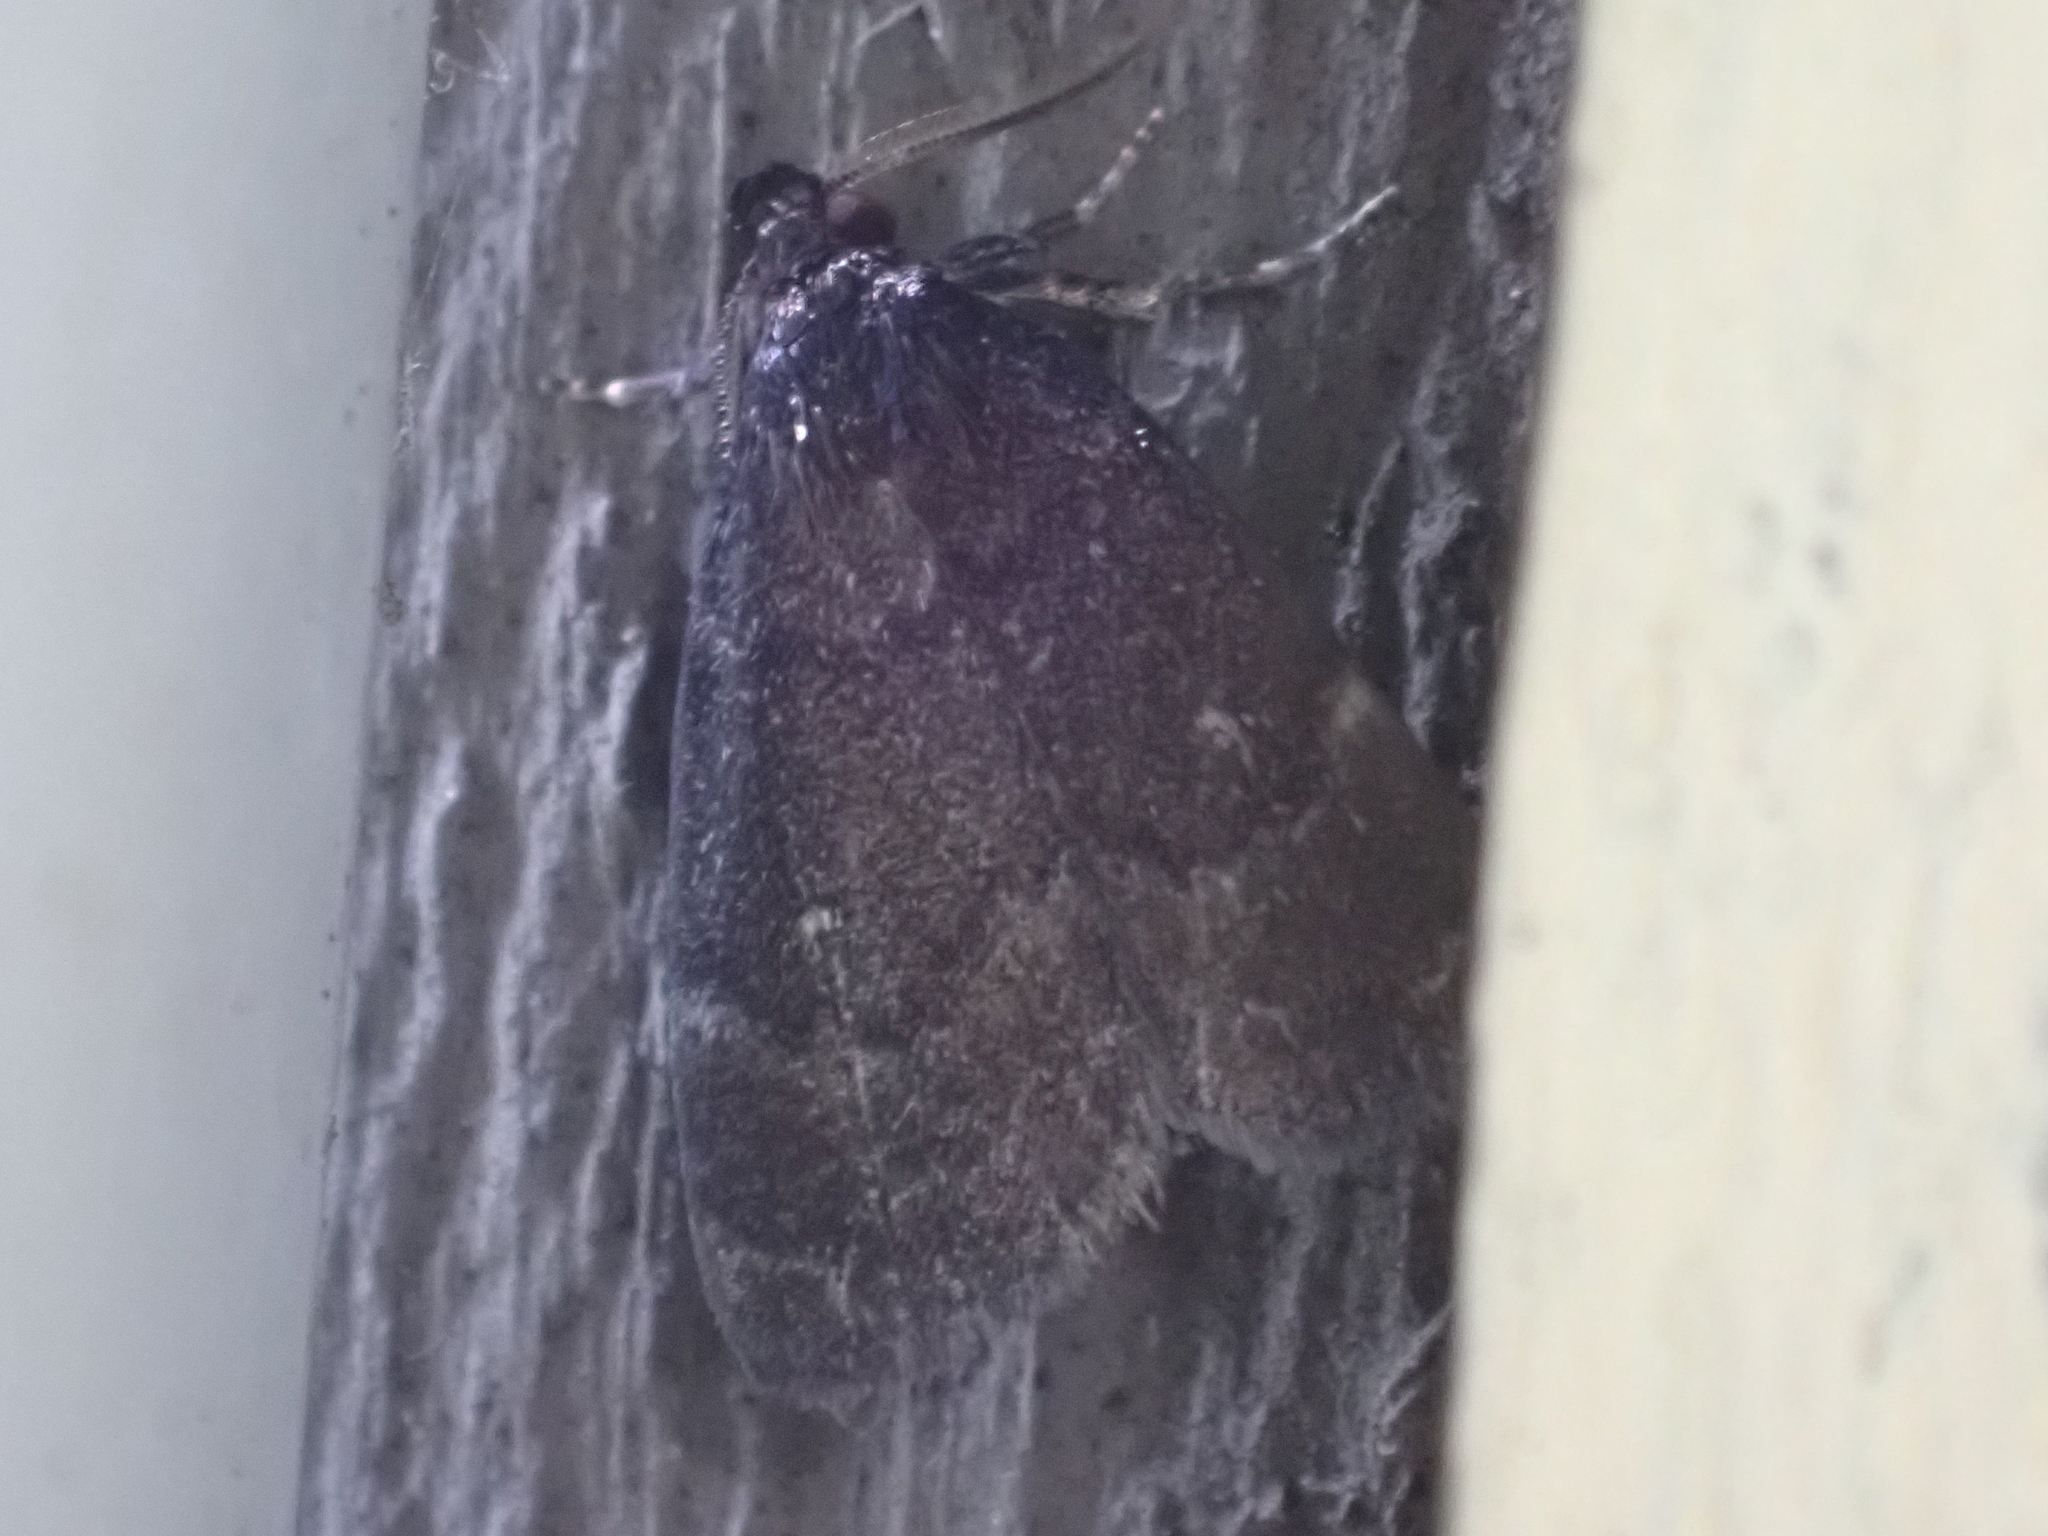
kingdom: Animalia
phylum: Arthropoda
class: Insecta
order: Lepidoptera
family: Erebidae
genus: Idia
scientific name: Idia rotundalis
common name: Rotund idia moth
